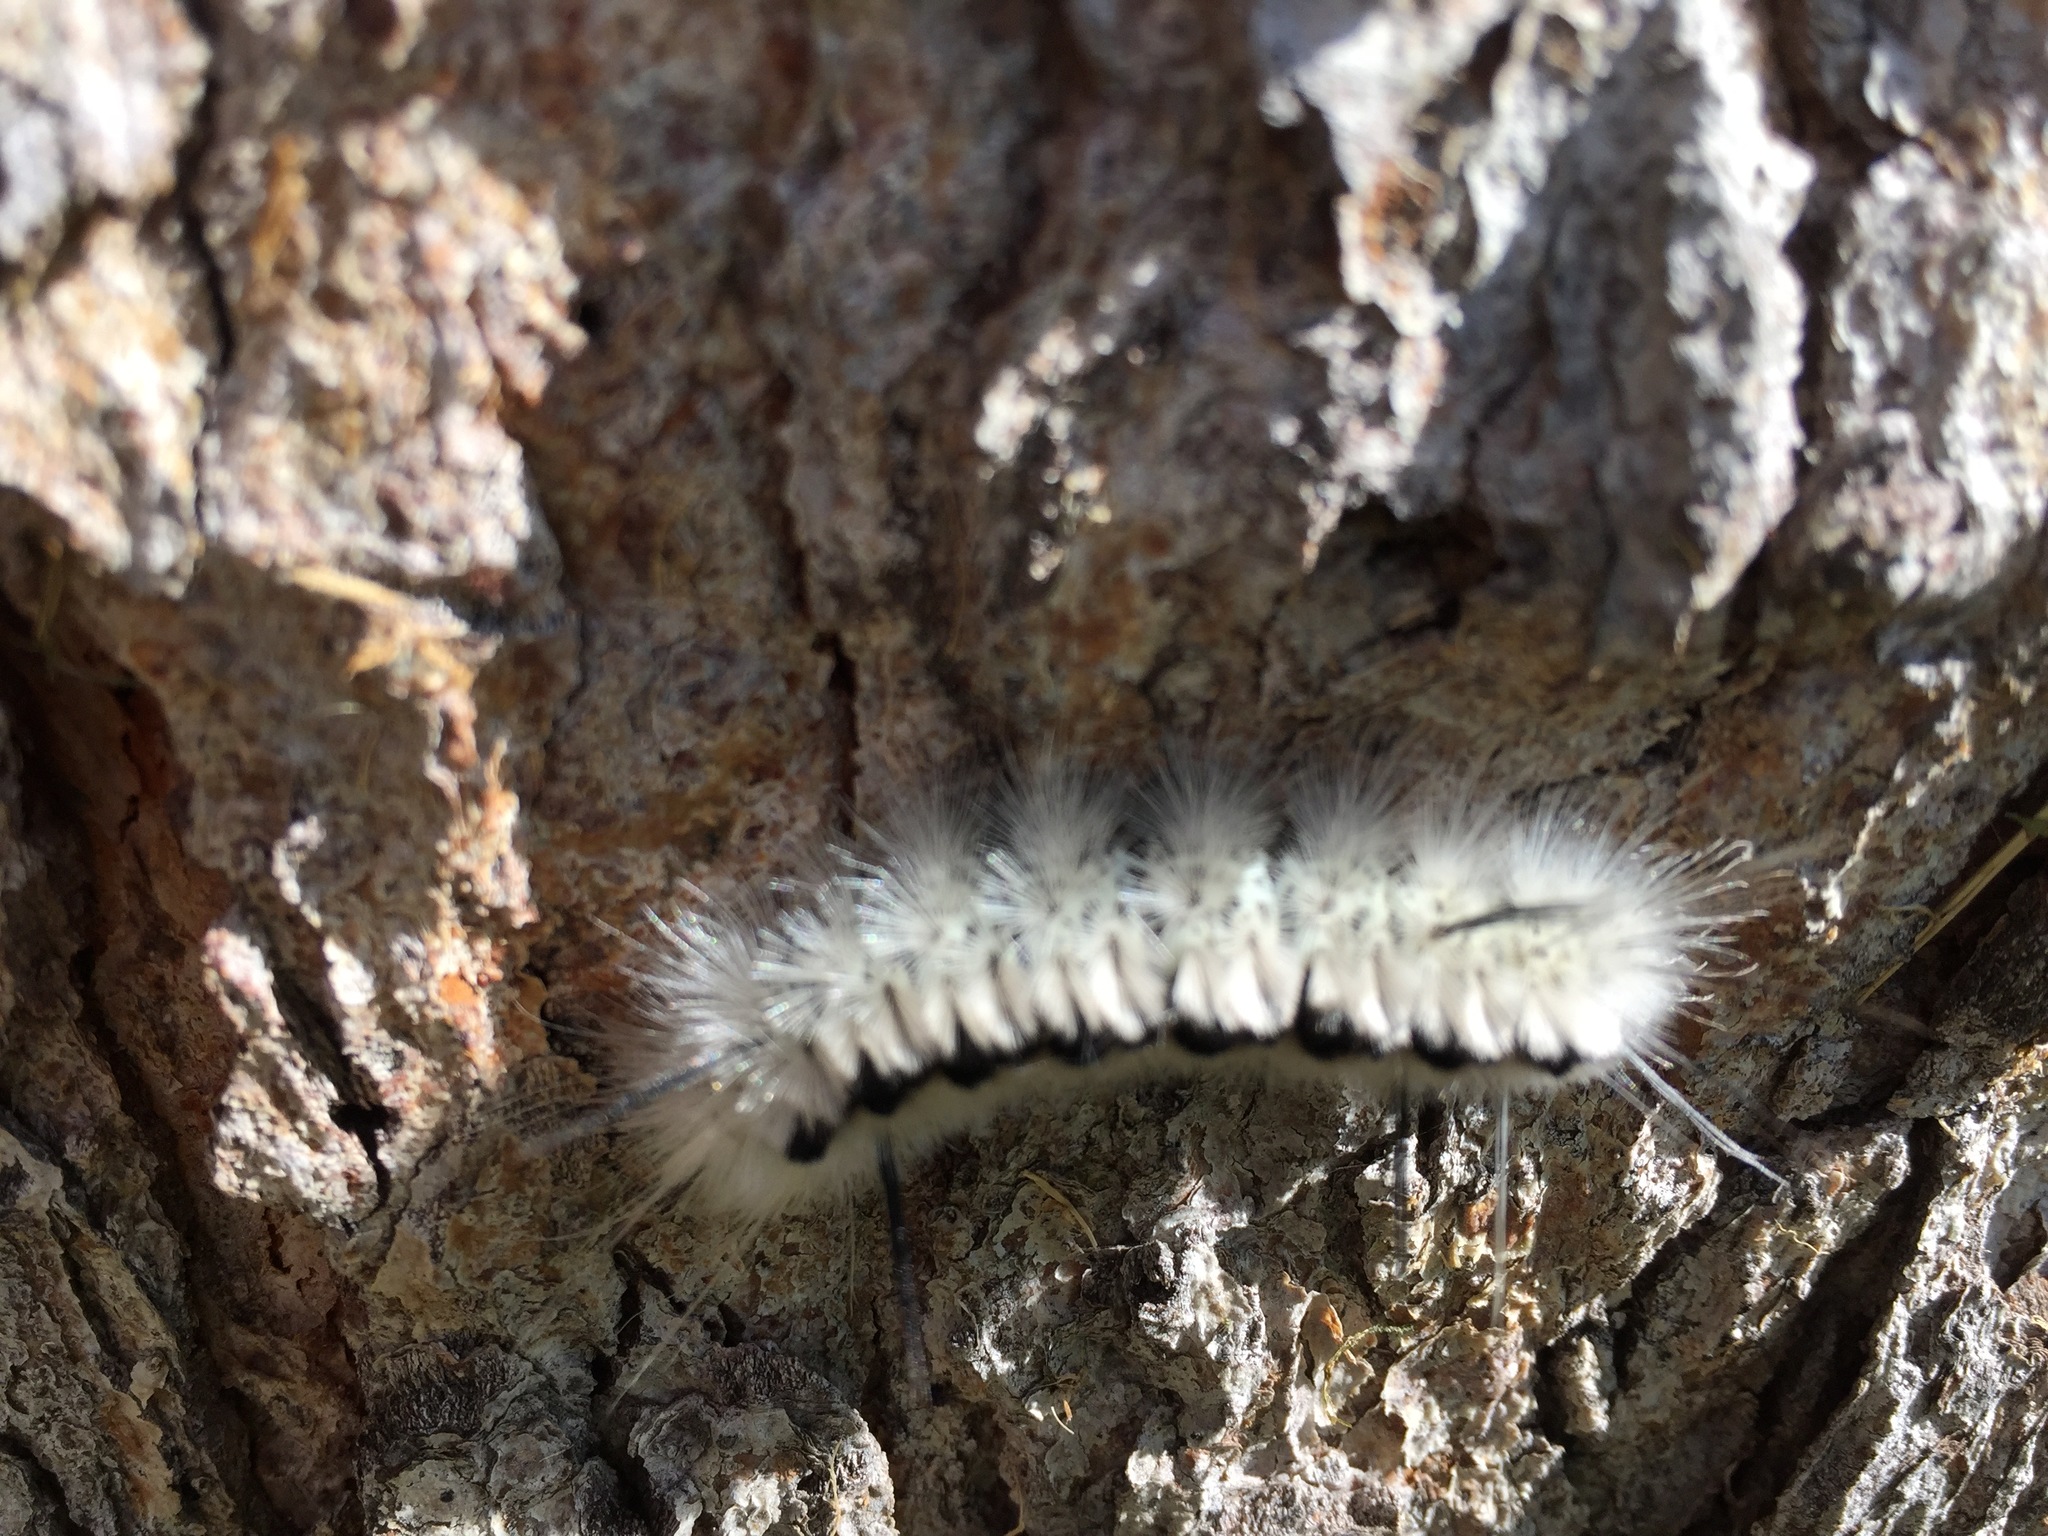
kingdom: Animalia
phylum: Arthropoda
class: Insecta
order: Lepidoptera
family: Erebidae
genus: Lophocampa
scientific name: Lophocampa caryae
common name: Hickory tussock moth
